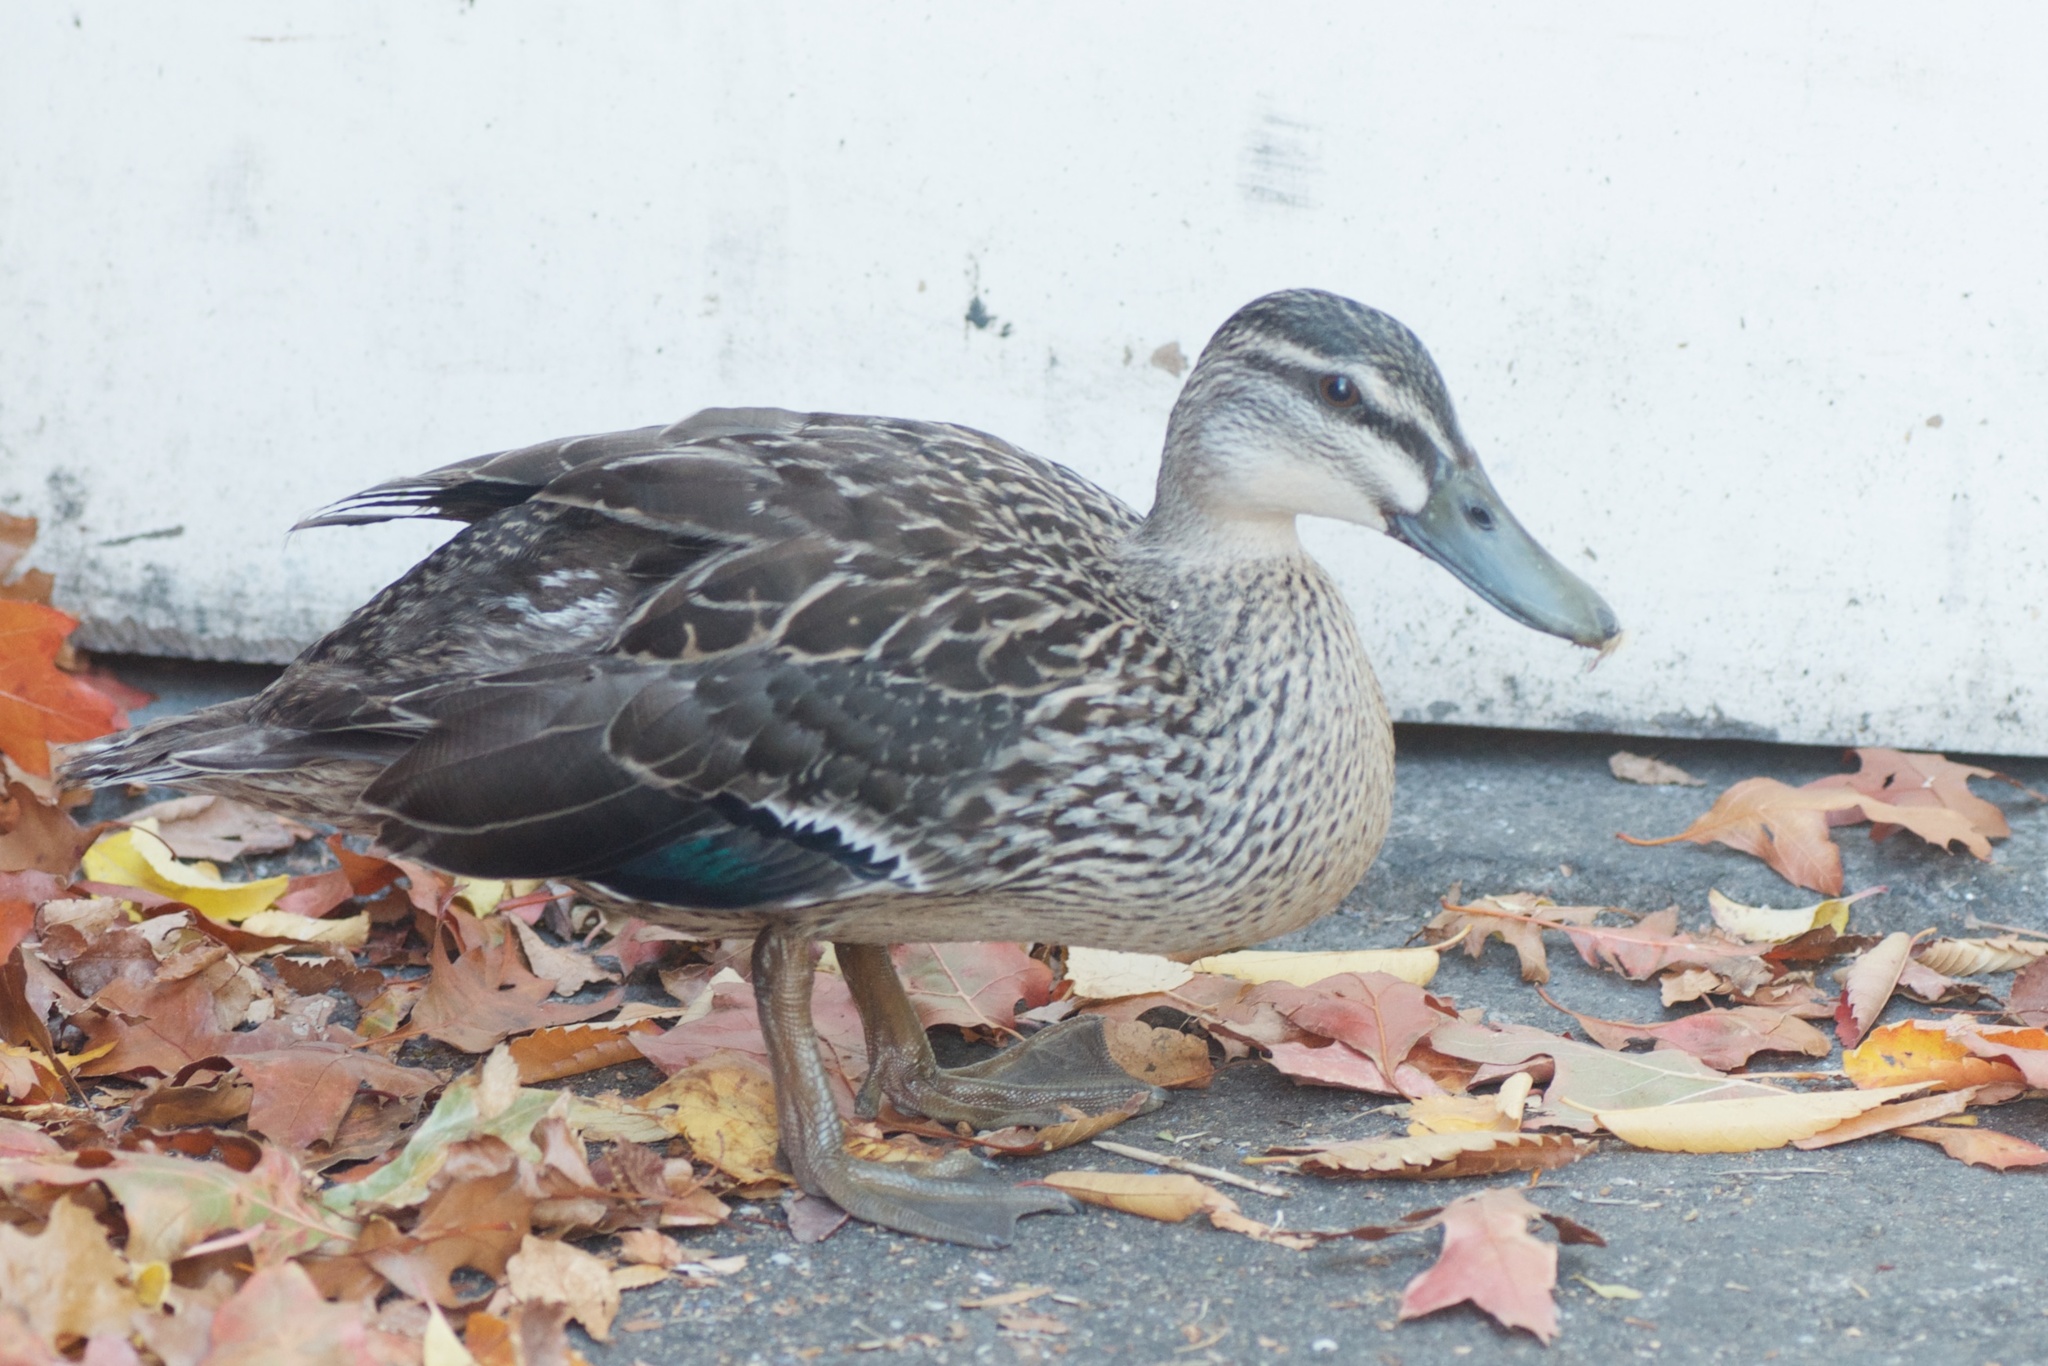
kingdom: Animalia
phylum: Chordata
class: Aves
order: Anseriformes
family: Anatidae
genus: Anas
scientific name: Anas
